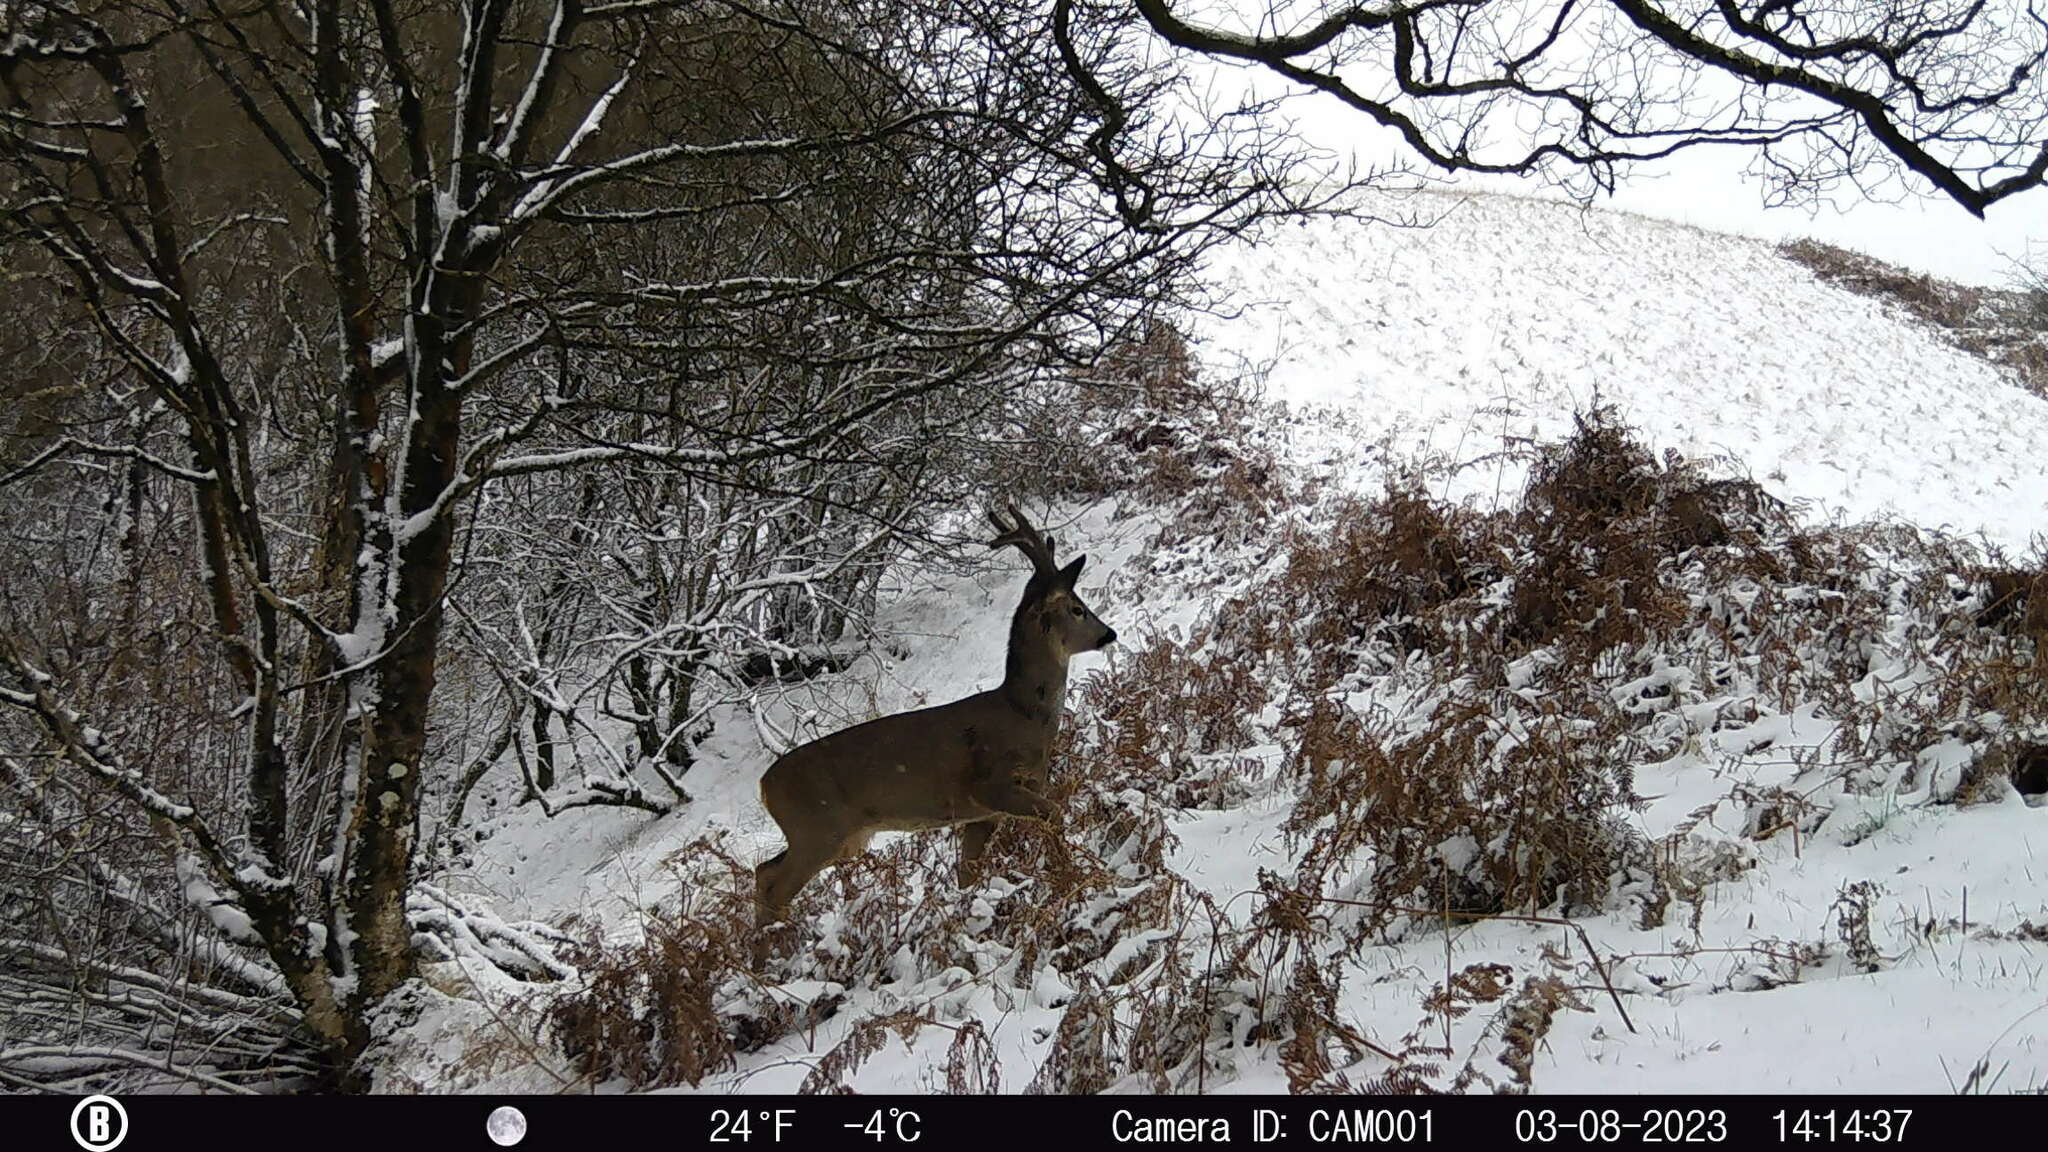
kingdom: Animalia
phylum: Chordata
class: Mammalia
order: Artiodactyla
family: Cervidae
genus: Capreolus
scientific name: Capreolus capreolus
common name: Western roe deer
